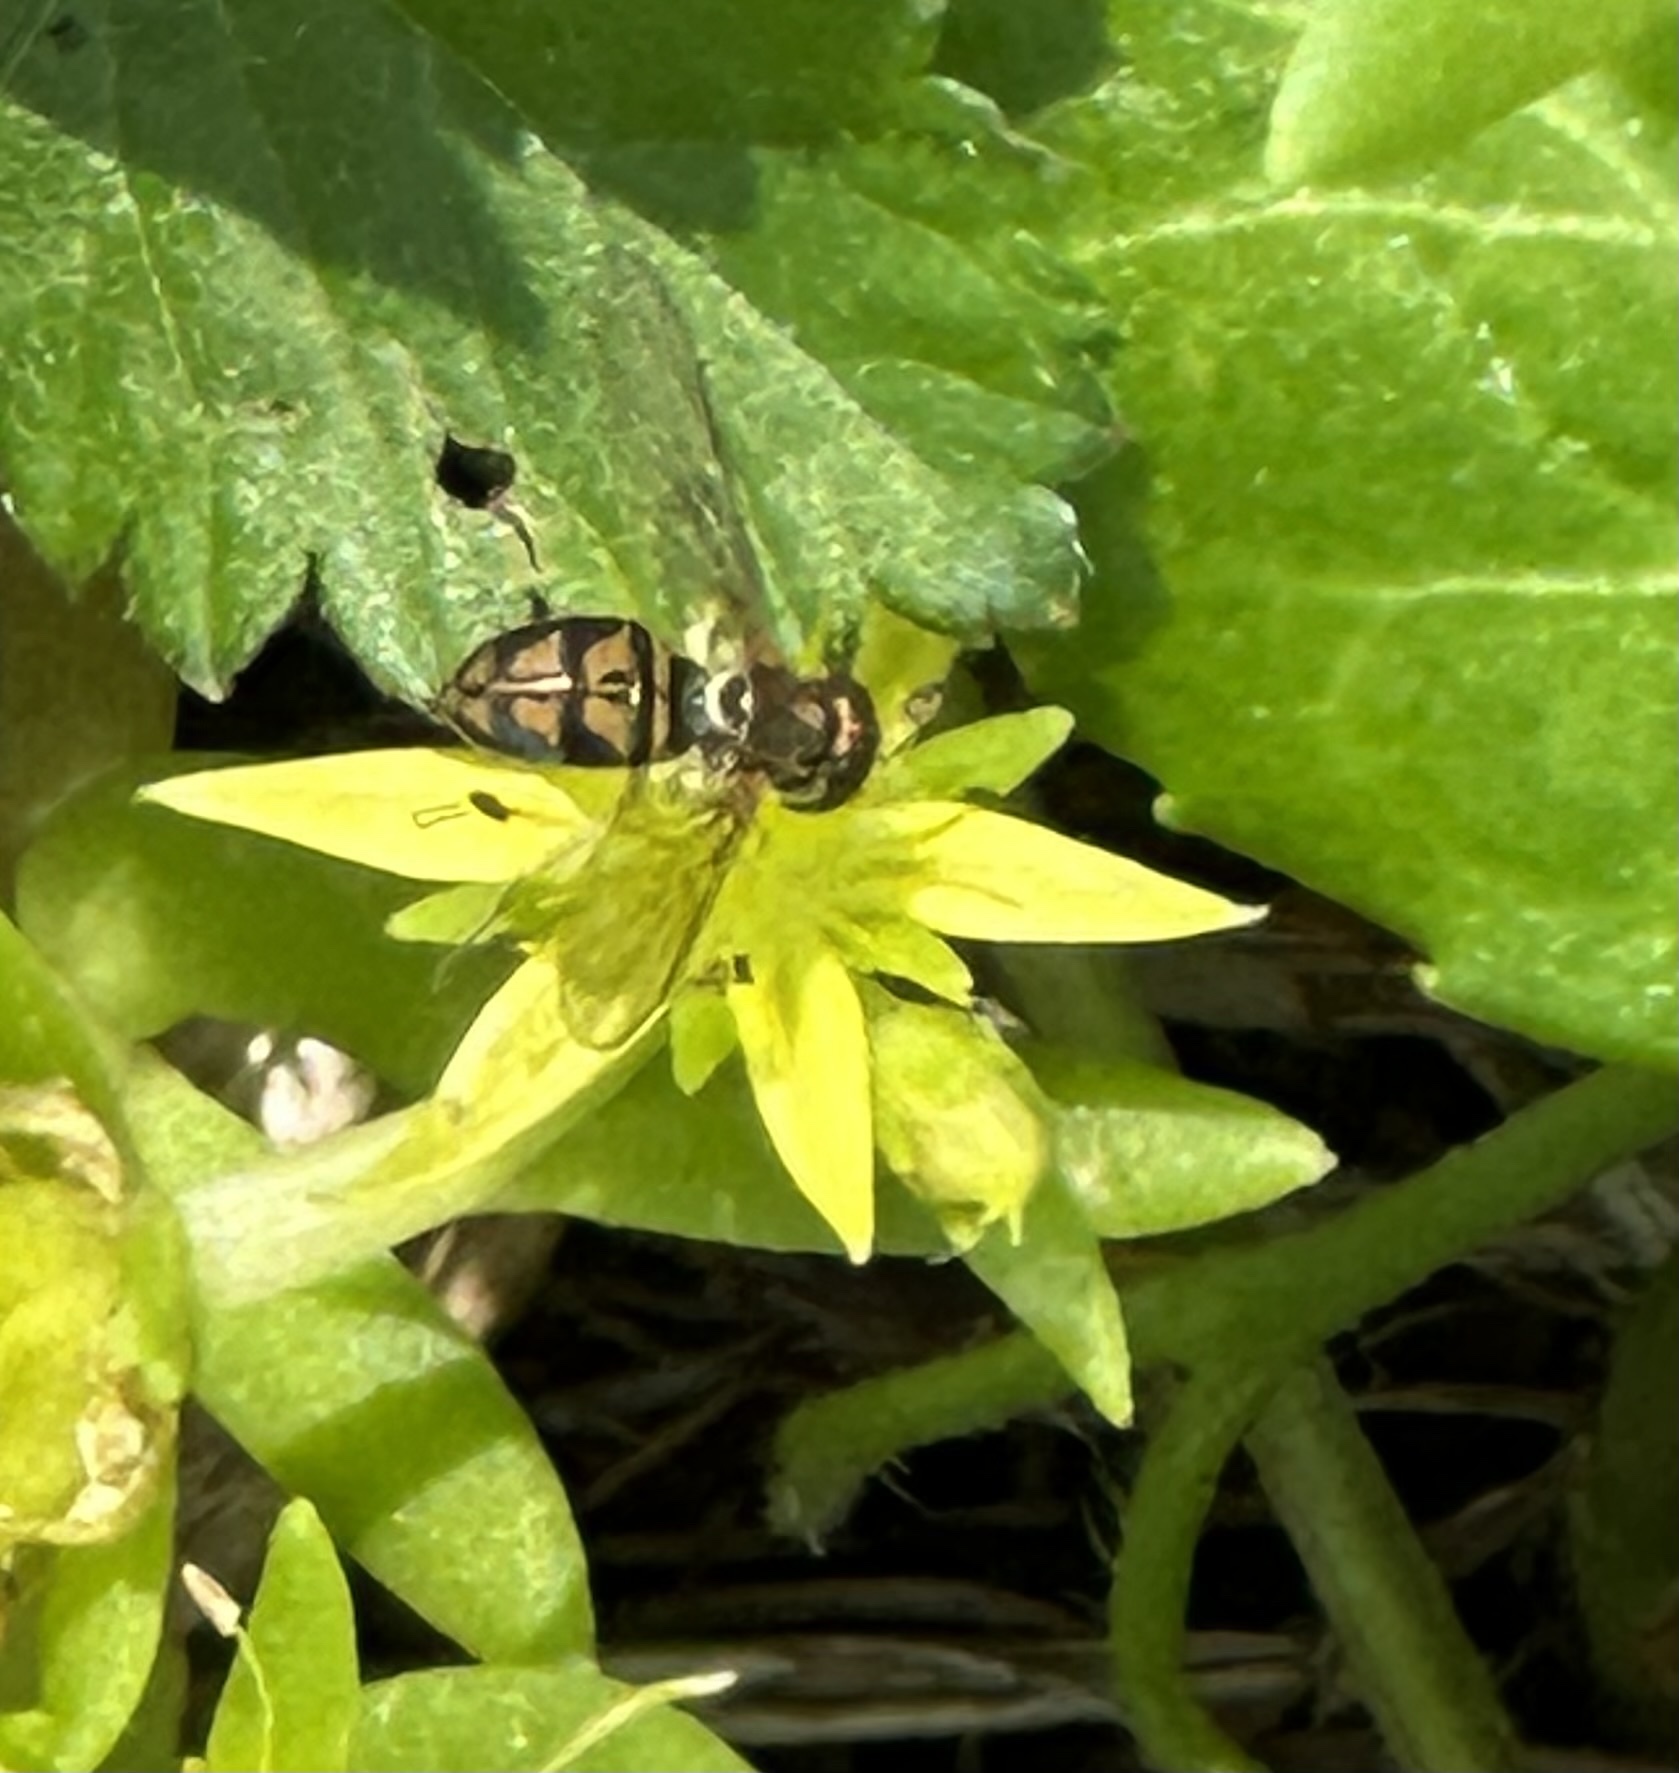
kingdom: Animalia
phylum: Arthropoda
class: Insecta
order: Diptera
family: Syrphidae
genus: Toxomerus
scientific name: Toxomerus marginatus
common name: Syrphid fly
